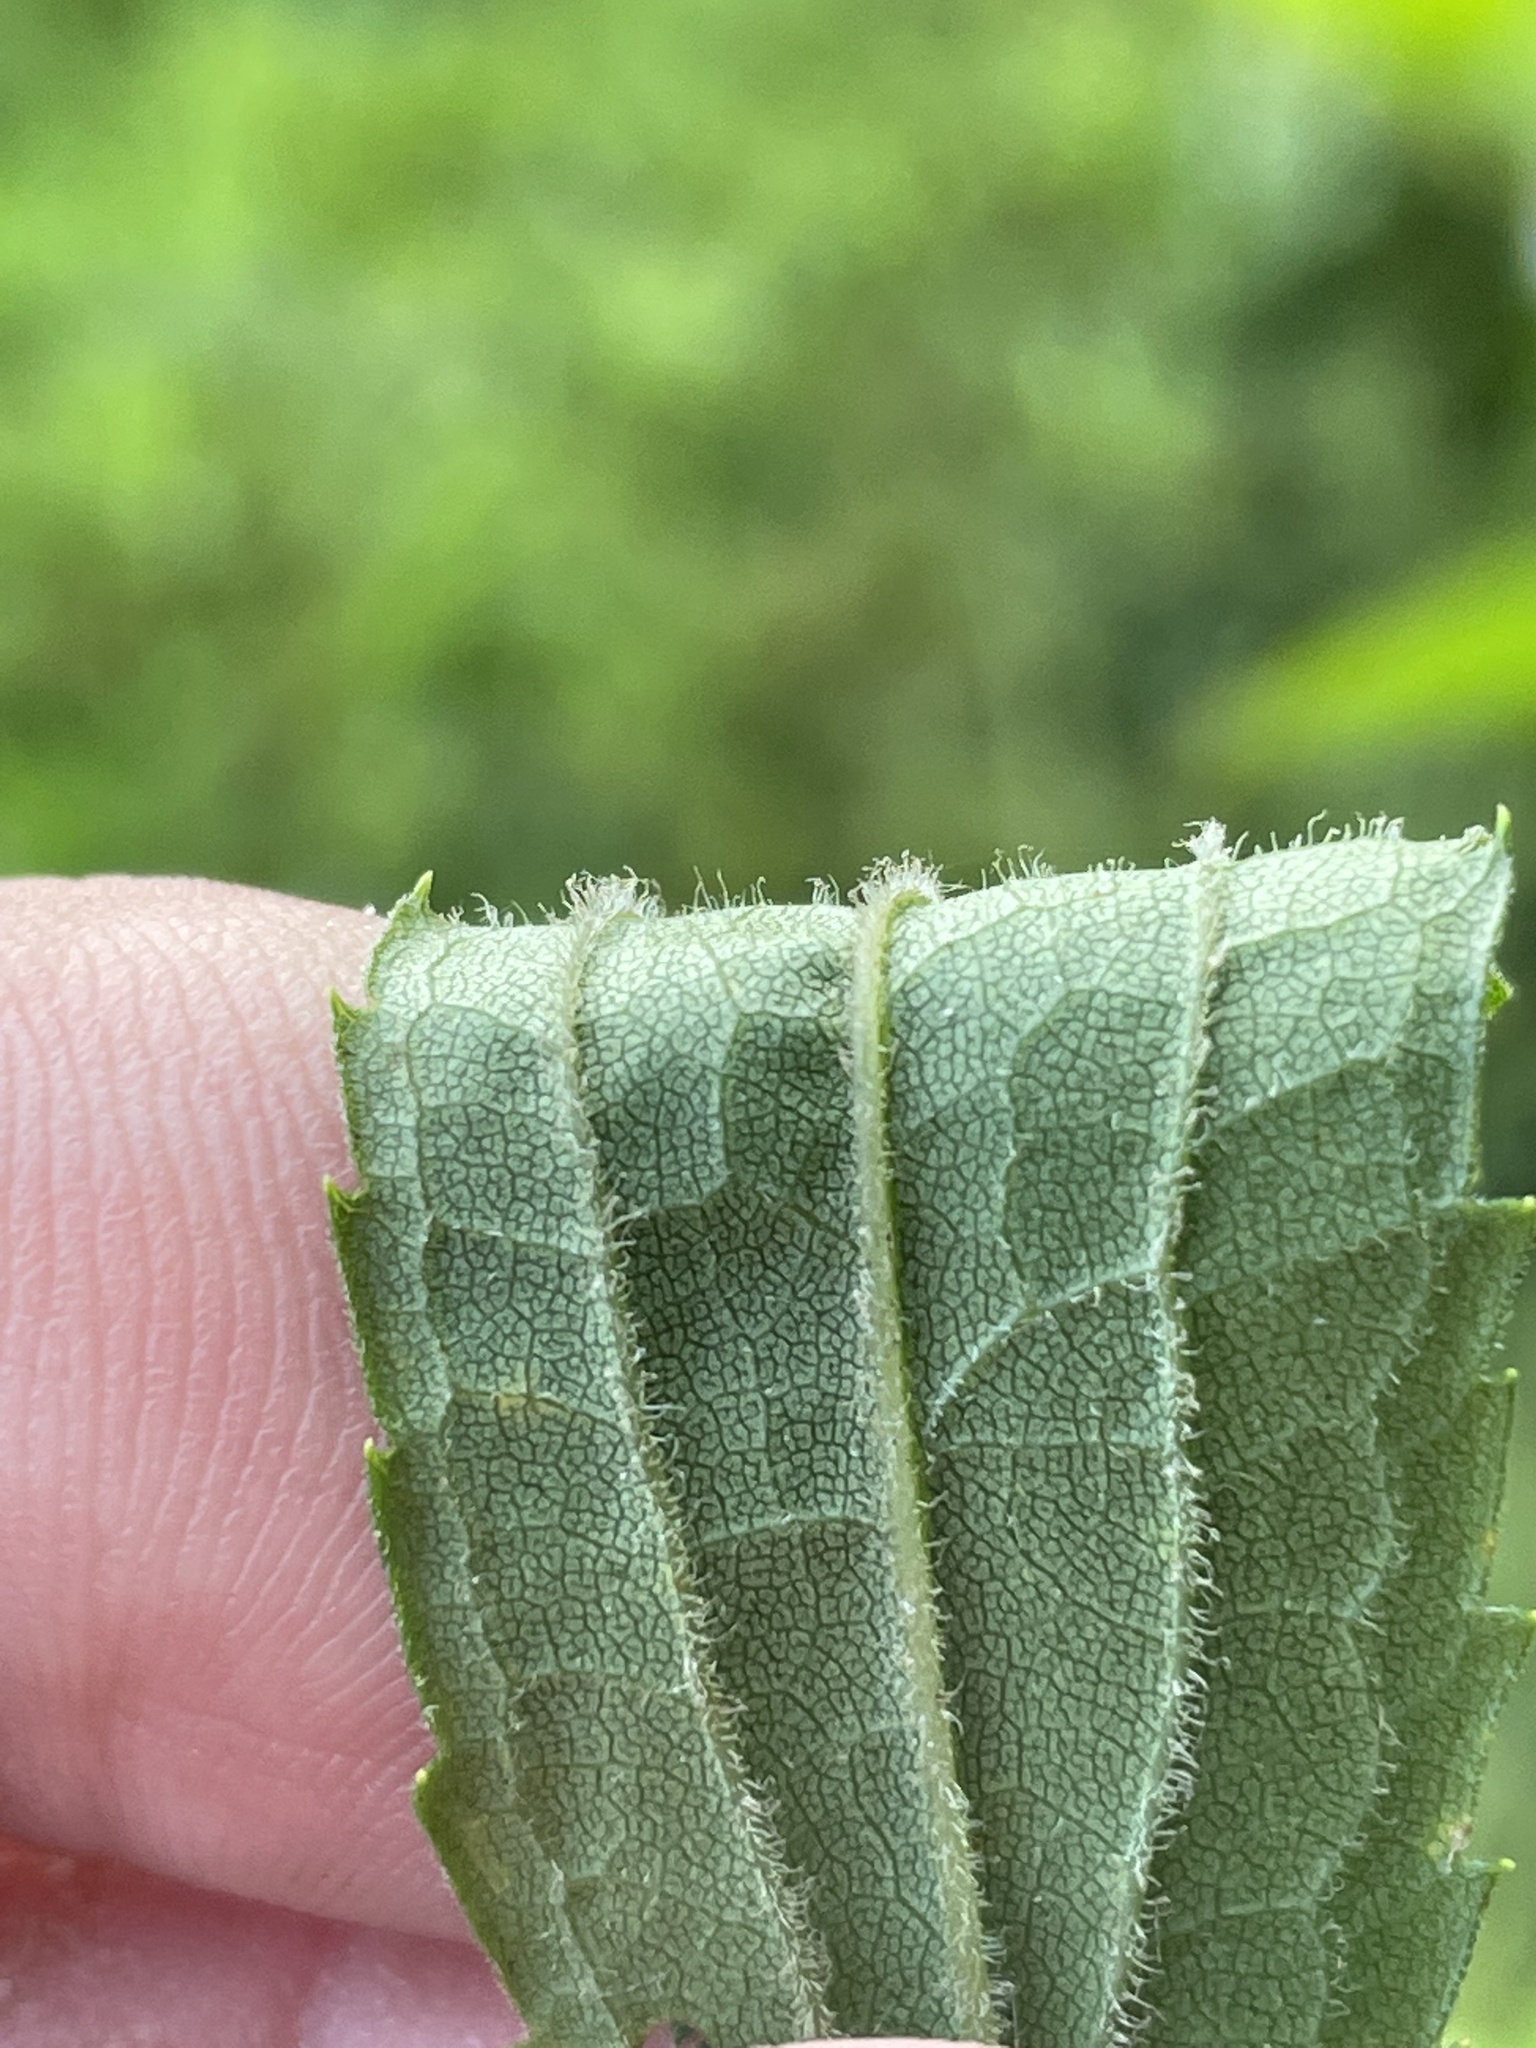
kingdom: Plantae
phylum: Tracheophyta
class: Magnoliopsida
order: Asterales
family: Asteraceae
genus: Solidago
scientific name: Solidago gigantea
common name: Giant goldenrod
